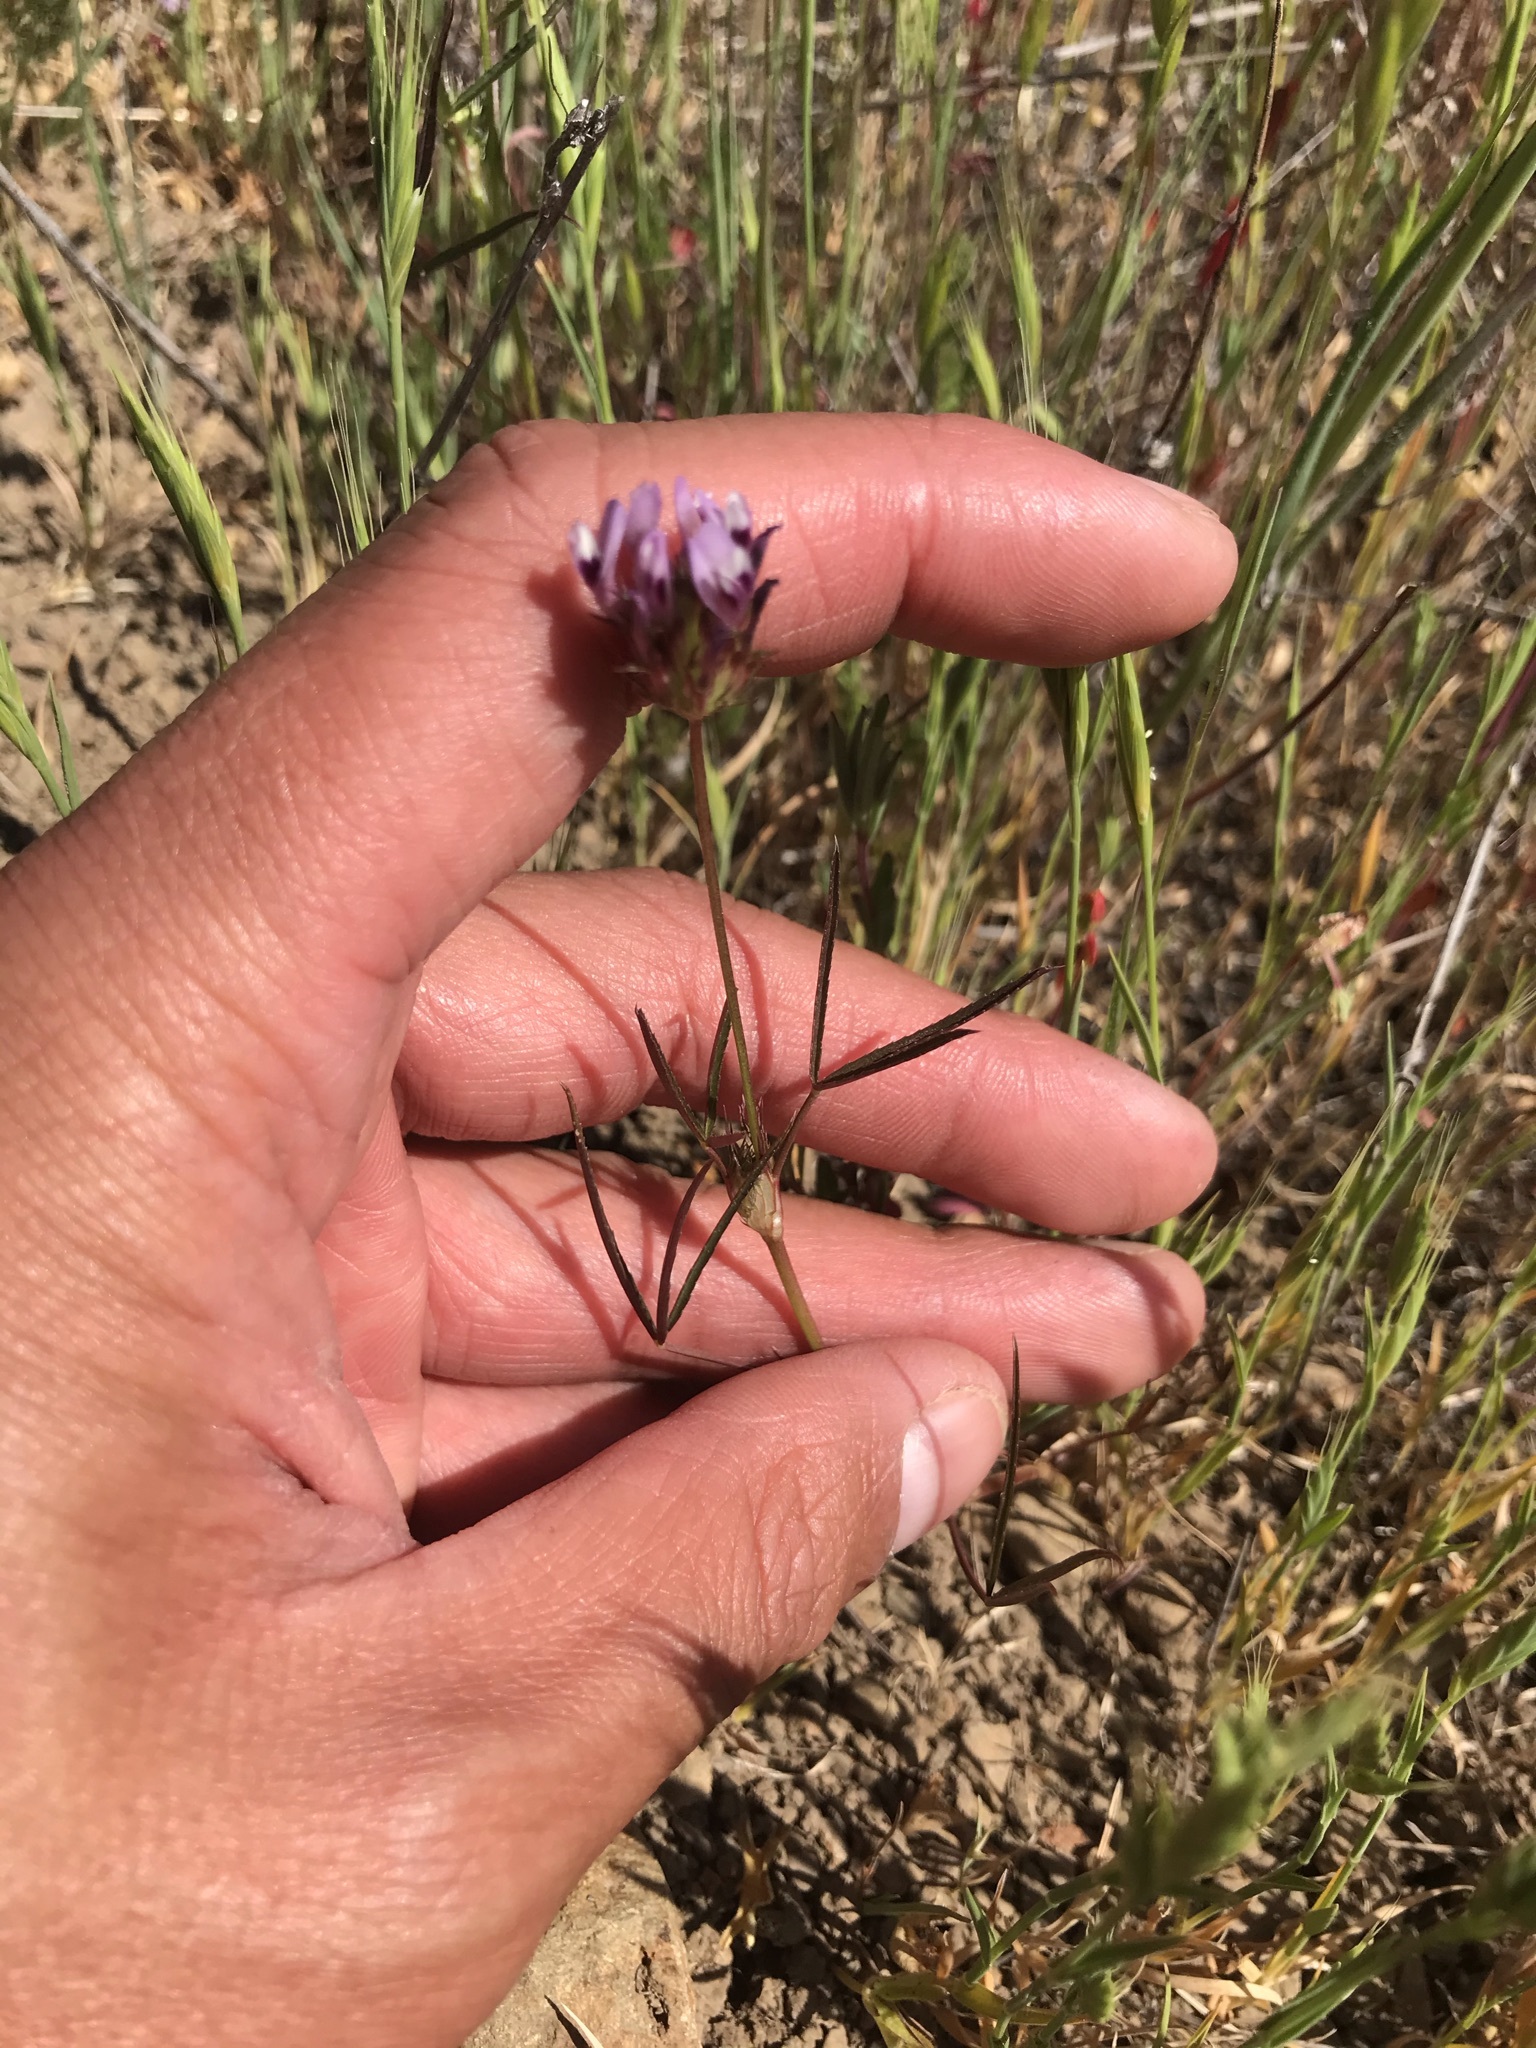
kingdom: Plantae
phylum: Tracheophyta
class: Magnoliopsida
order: Fabales
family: Fabaceae
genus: Trifolium
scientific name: Trifolium willdenovii
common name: Tomcat clover
